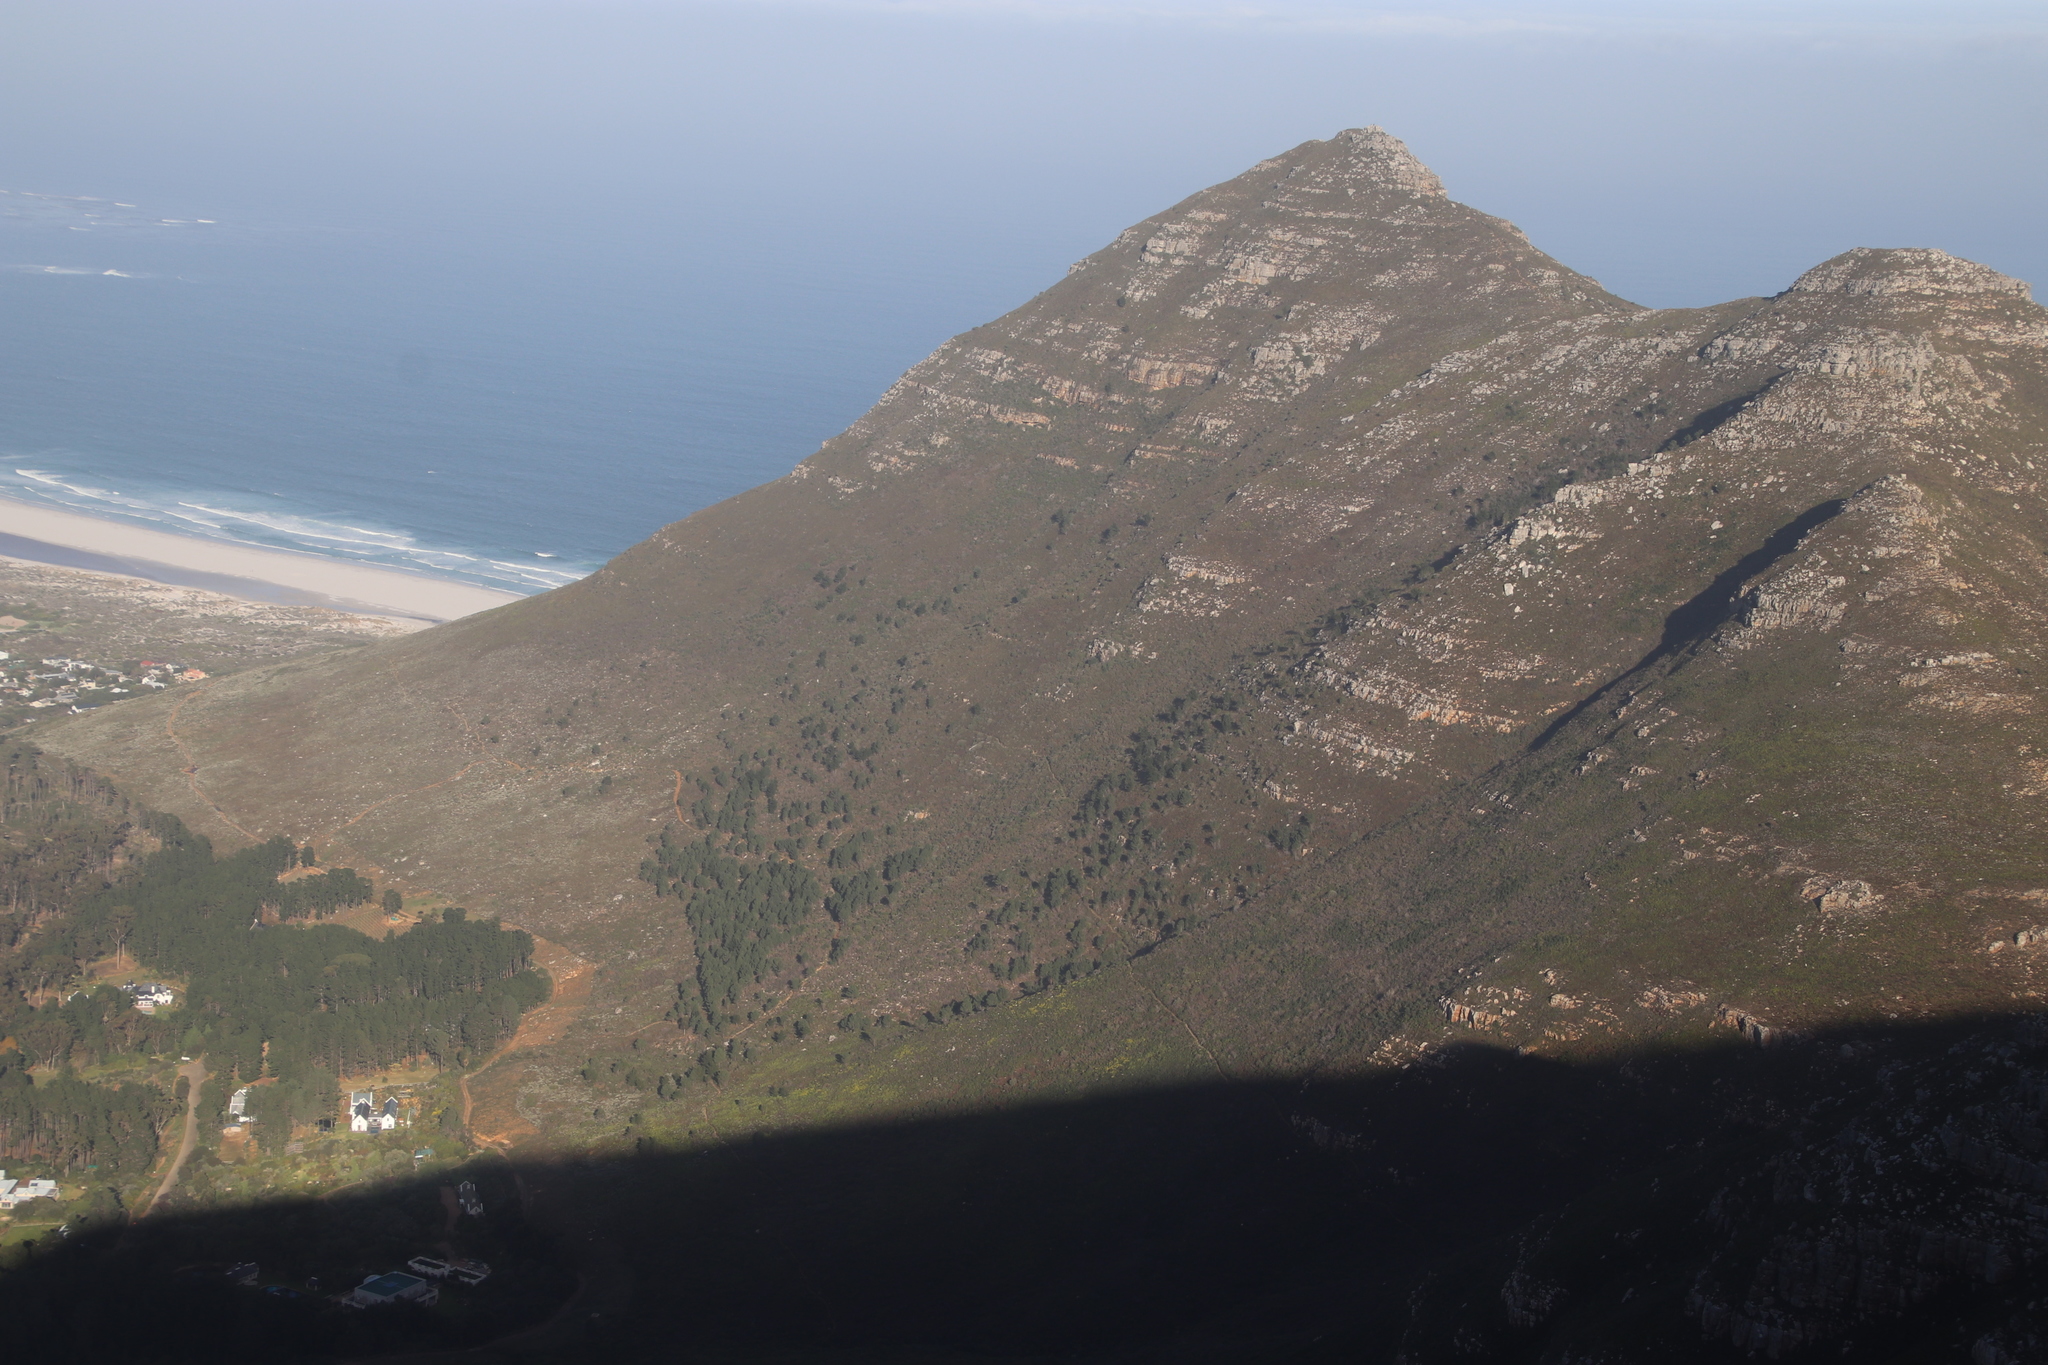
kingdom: Plantae
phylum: Tracheophyta
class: Pinopsida
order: Pinales
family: Pinaceae
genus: Pinus
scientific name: Pinus pinaster
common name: Maritime pine
